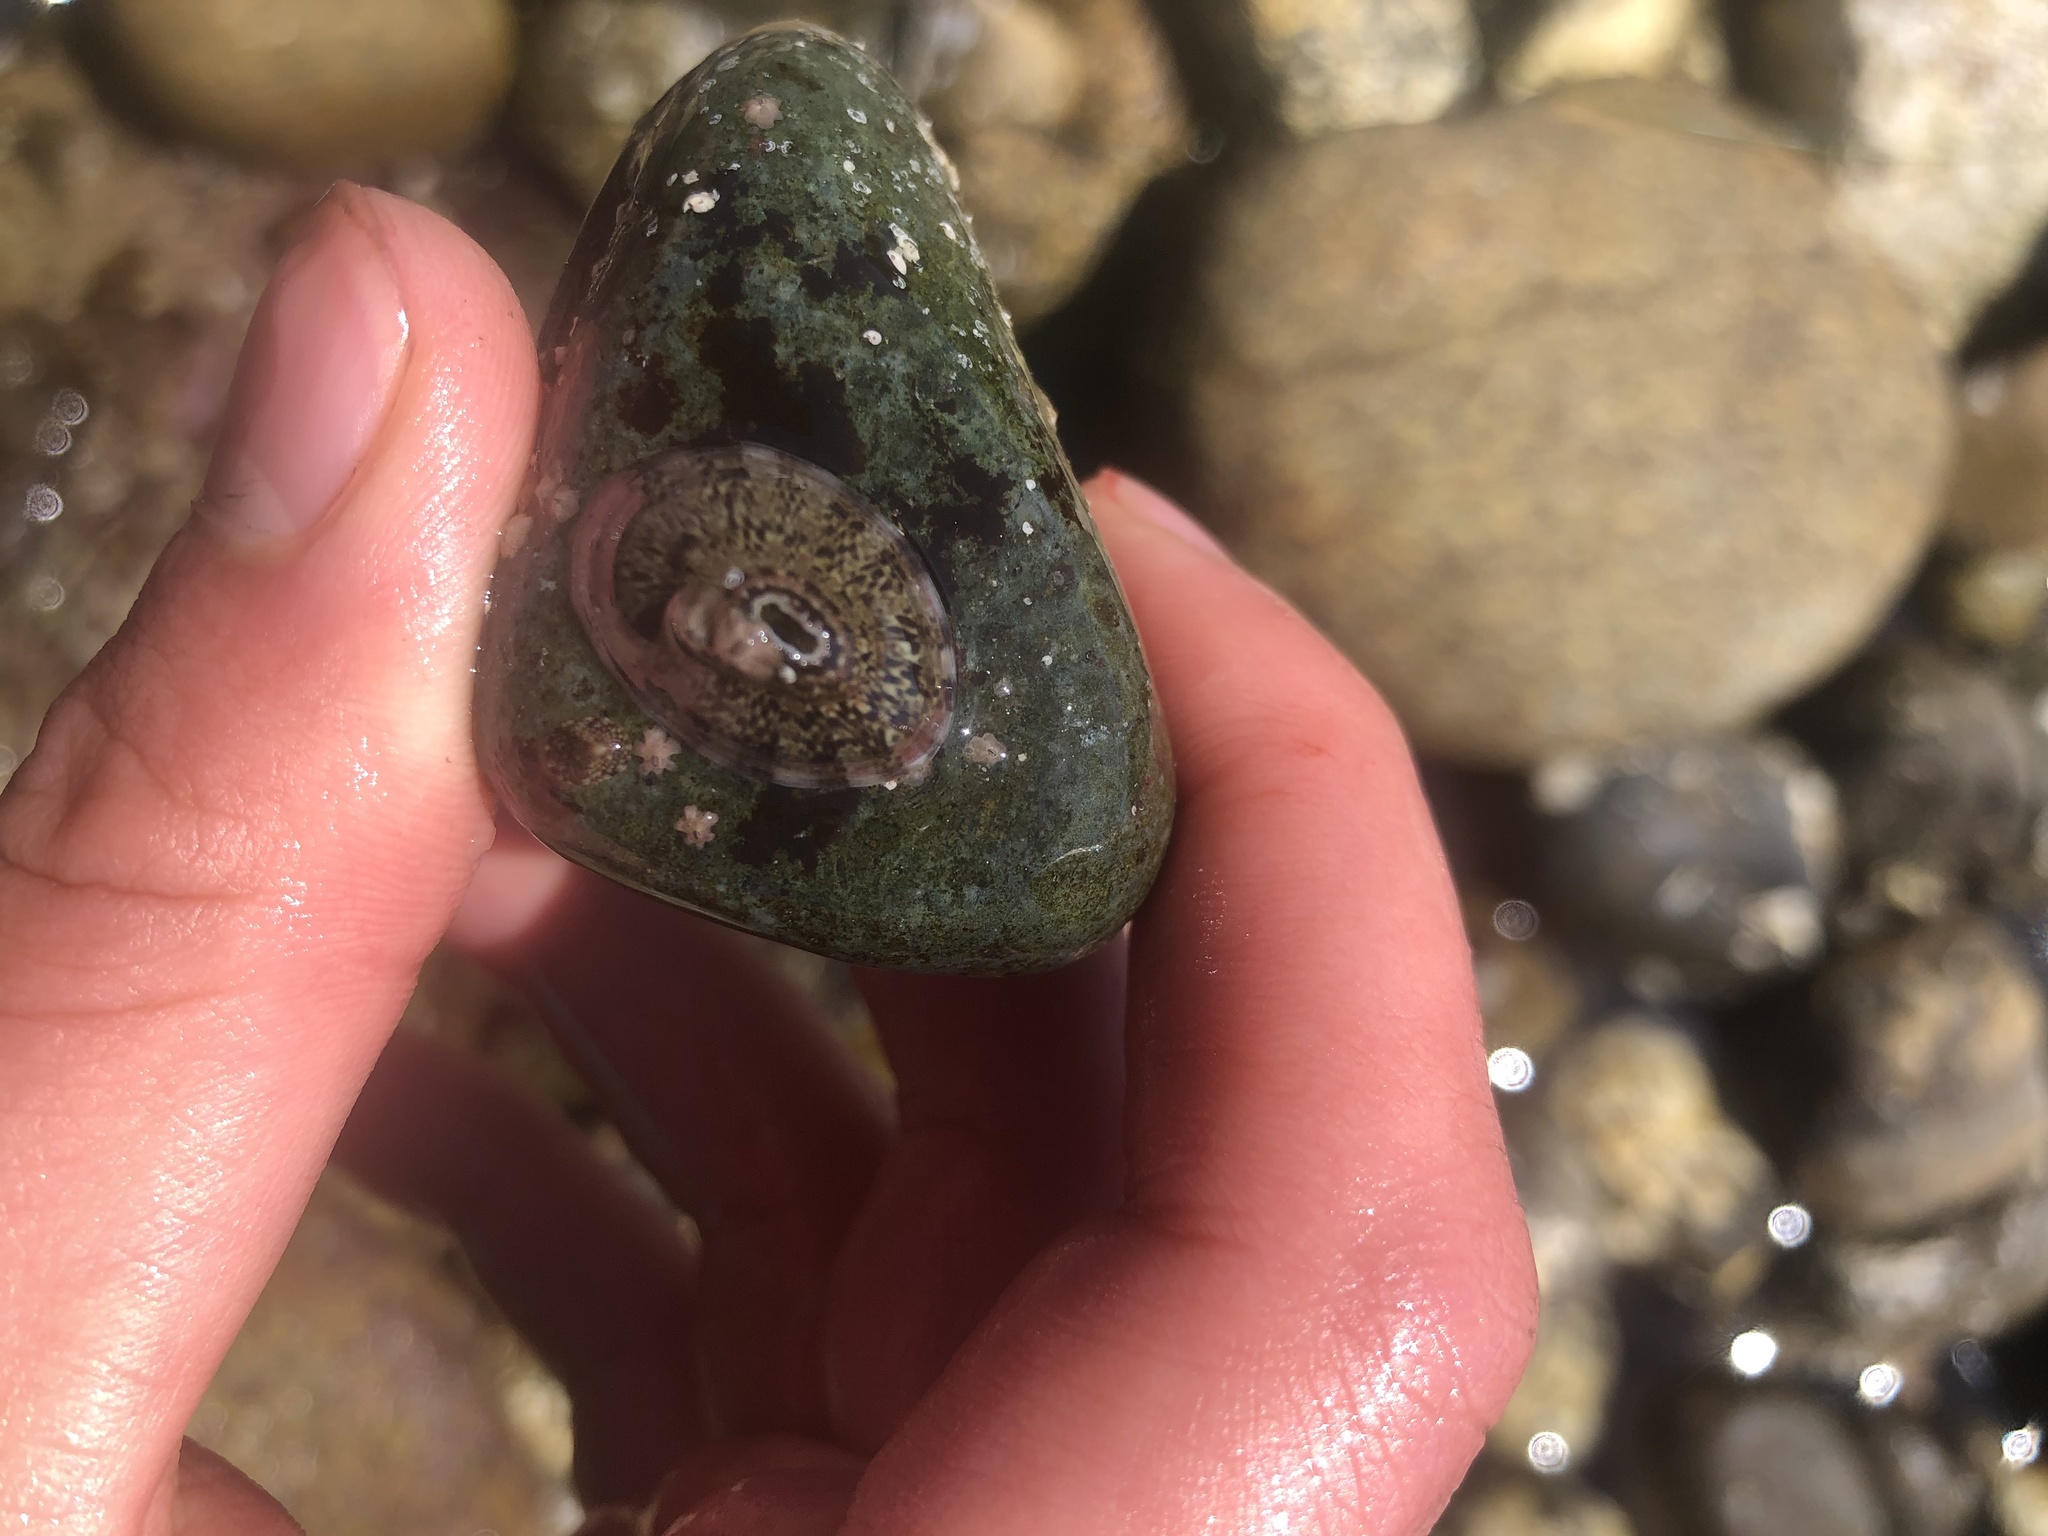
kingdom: Animalia
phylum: Mollusca
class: Gastropoda
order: Lepetellida
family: Fissurellidae
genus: Fissurella
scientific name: Fissurella volcano
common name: Volcano keyhole limpet
